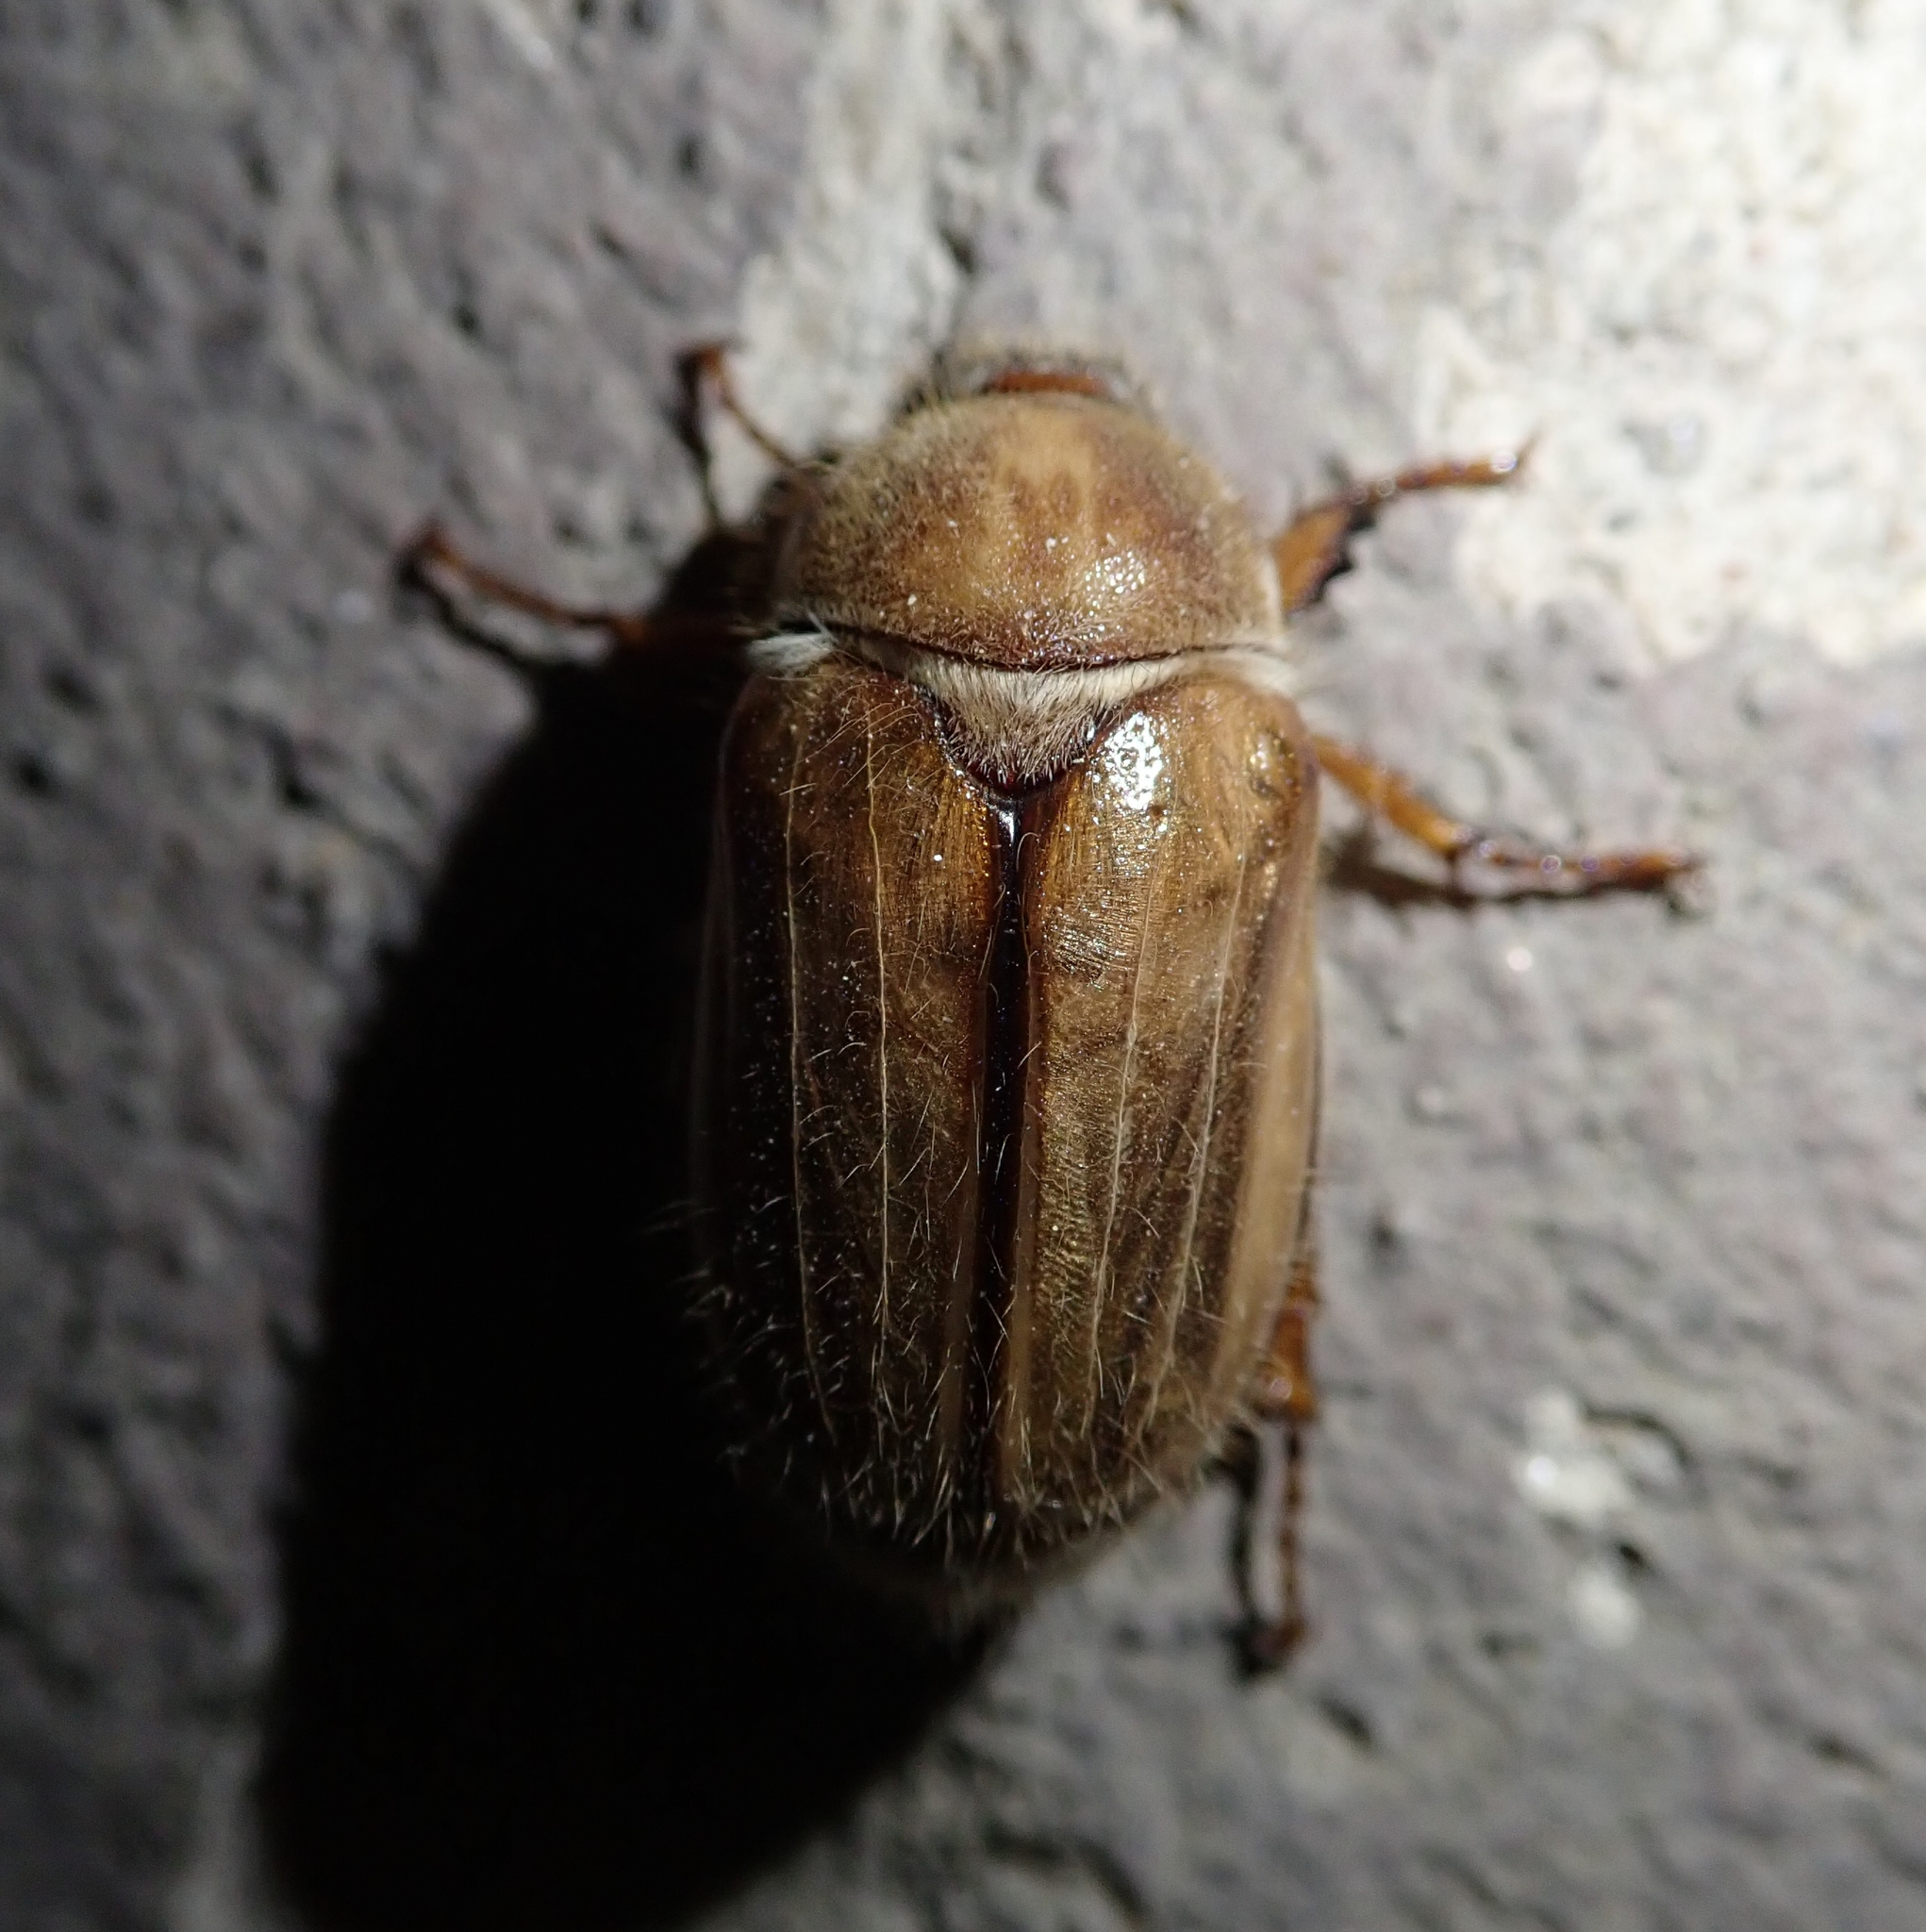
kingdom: Animalia
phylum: Arthropoda
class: Insecta
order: Coleoptera
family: Scarabaeidae
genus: Amphimallon
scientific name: Amphimallon solstitiale
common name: Summer chafer
